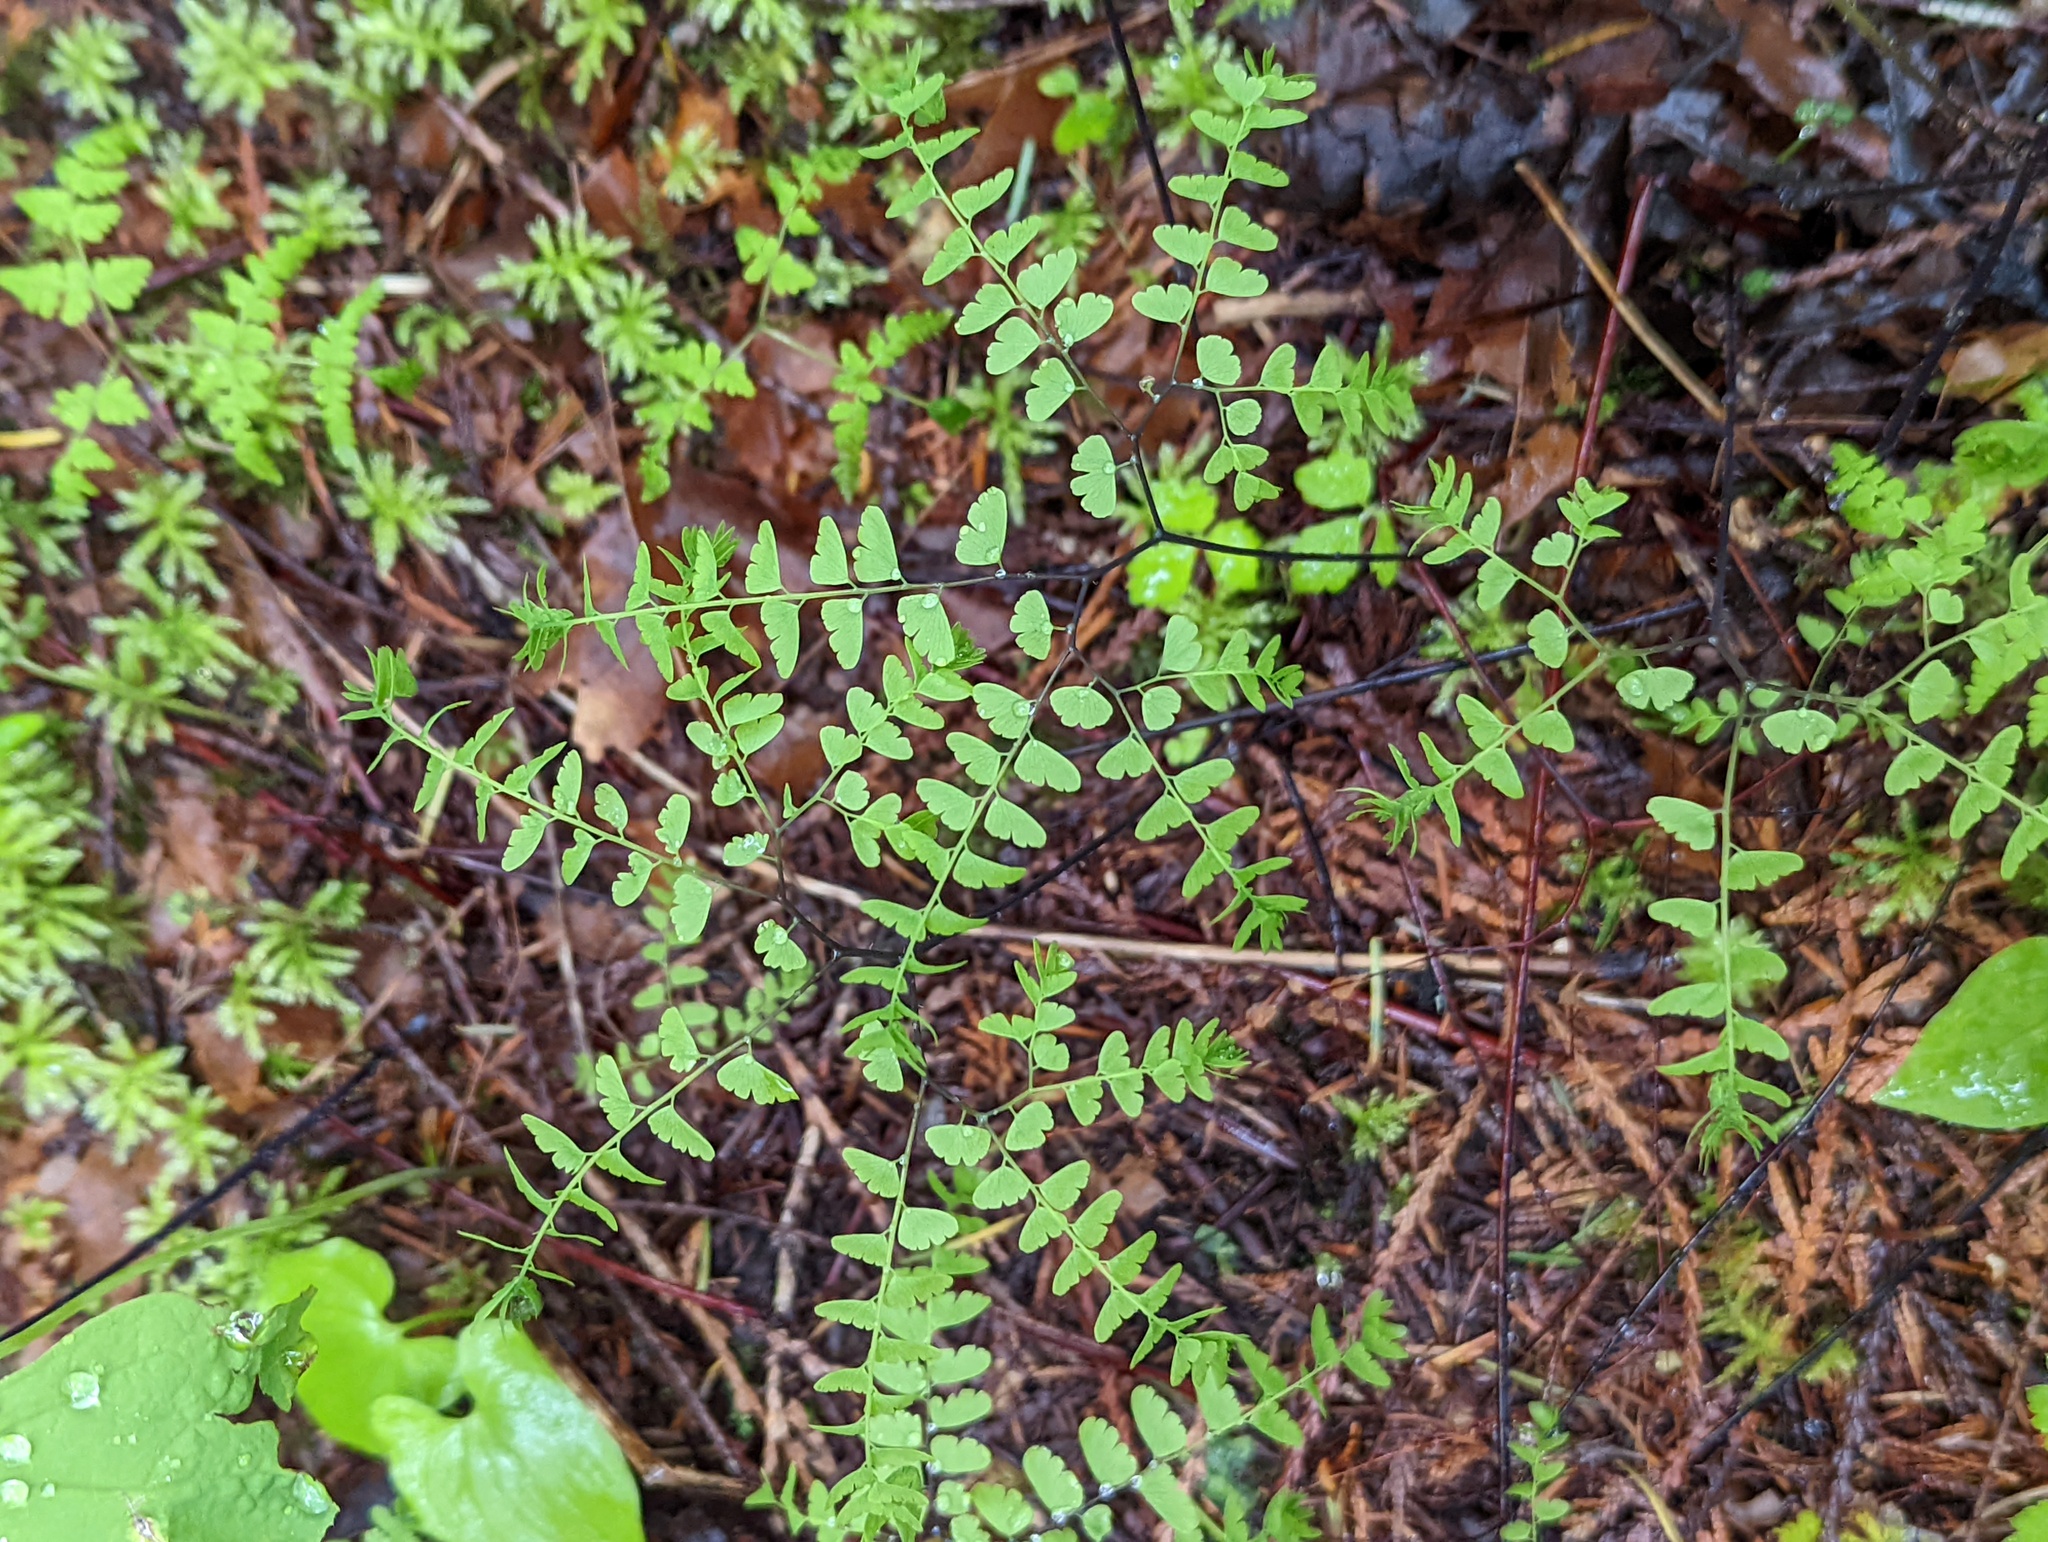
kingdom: Plantae
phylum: Tracheophyta
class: Polypodiopsida
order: Polypodiales
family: Pteridaceae
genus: Adiantum
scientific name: Adiantum aleuticum
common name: Aleutian maidenhair fern
